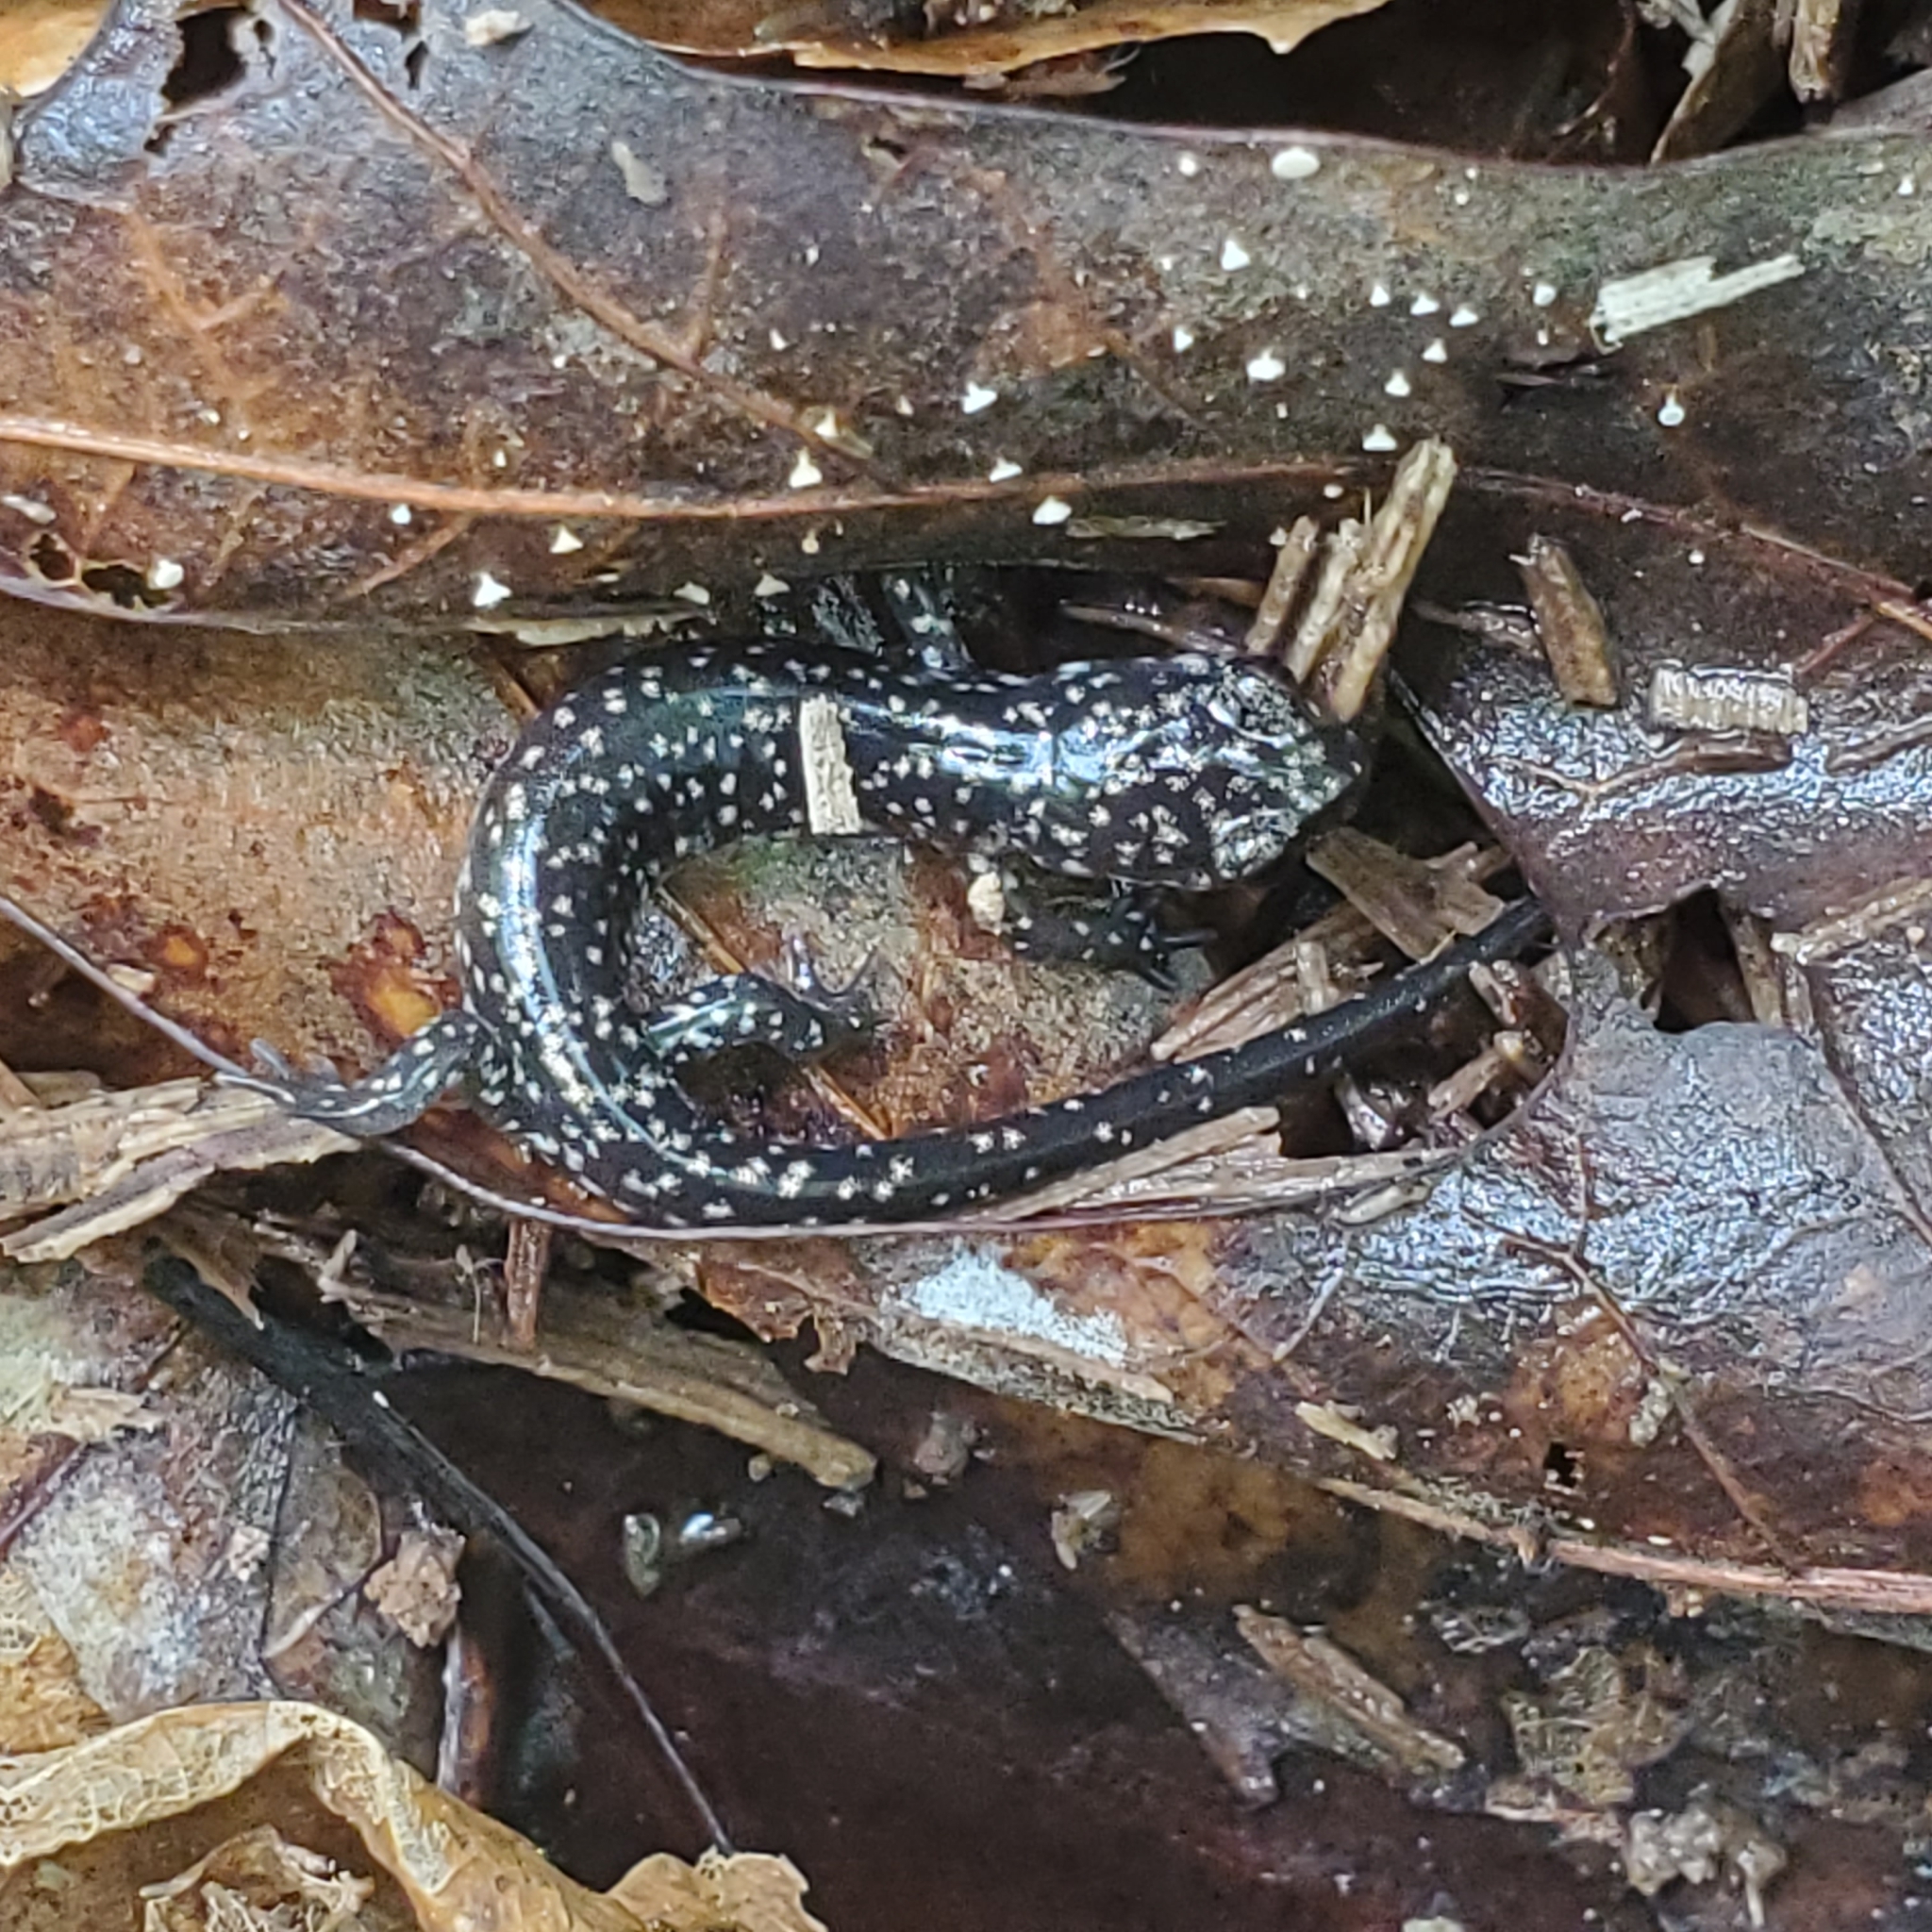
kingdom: Animalia
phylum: Chordata
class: Amphibia
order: Caudata
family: Plethodontidae
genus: Plethodon
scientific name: Plethodon glutinosus
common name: Northern slimy salamander
